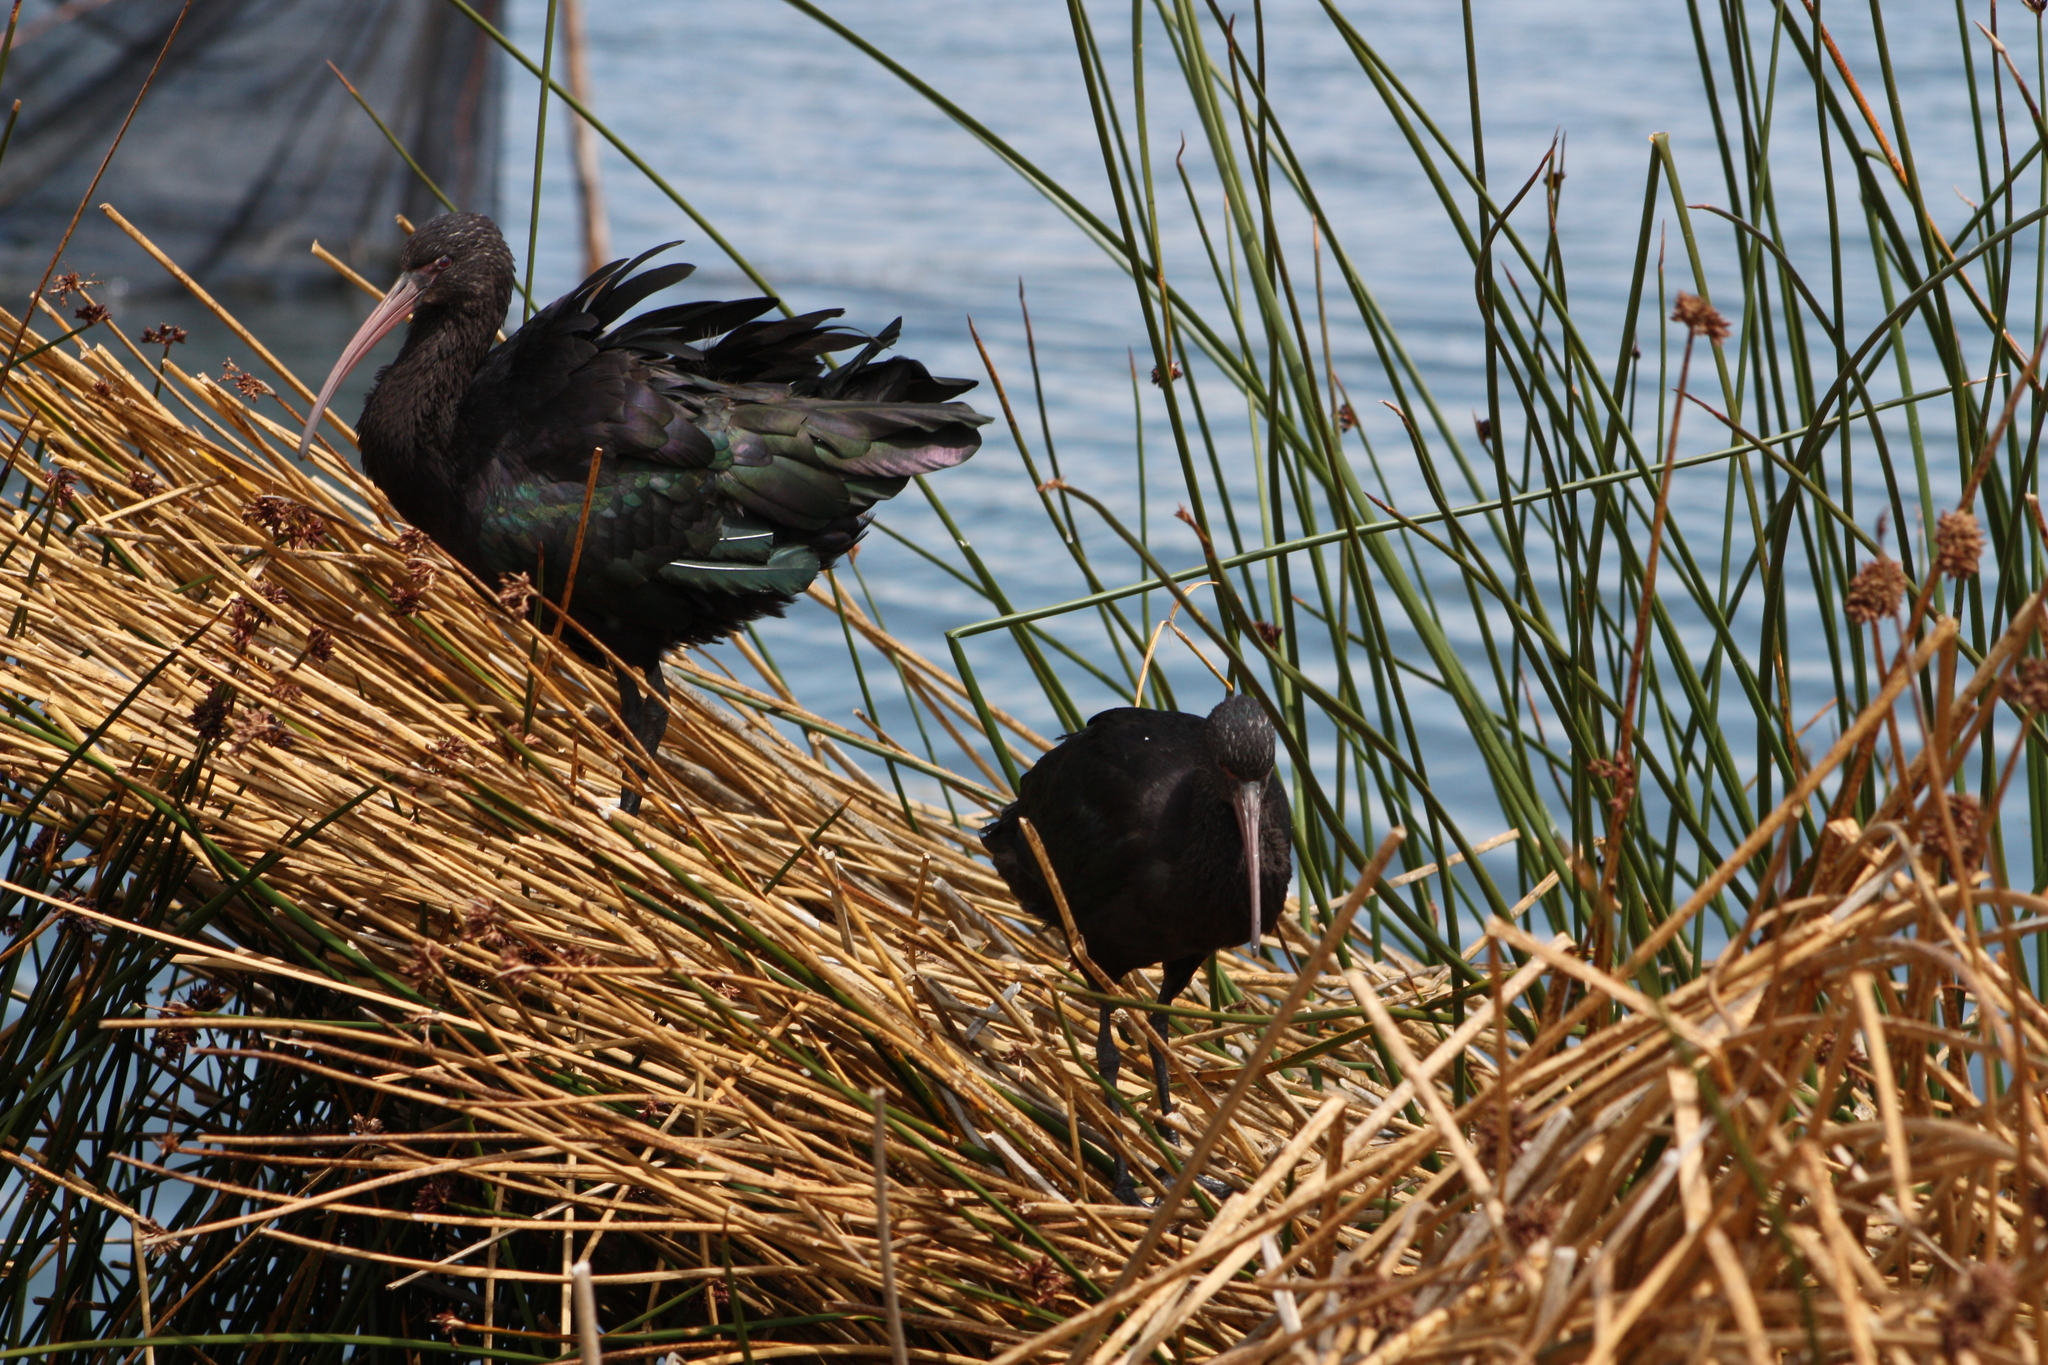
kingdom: Animalia
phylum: Chordata
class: Aves
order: Pelecaniformes
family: Threskiornithidae
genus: Plegadis
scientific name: Plegadis ridgwayi
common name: Puna ibis
